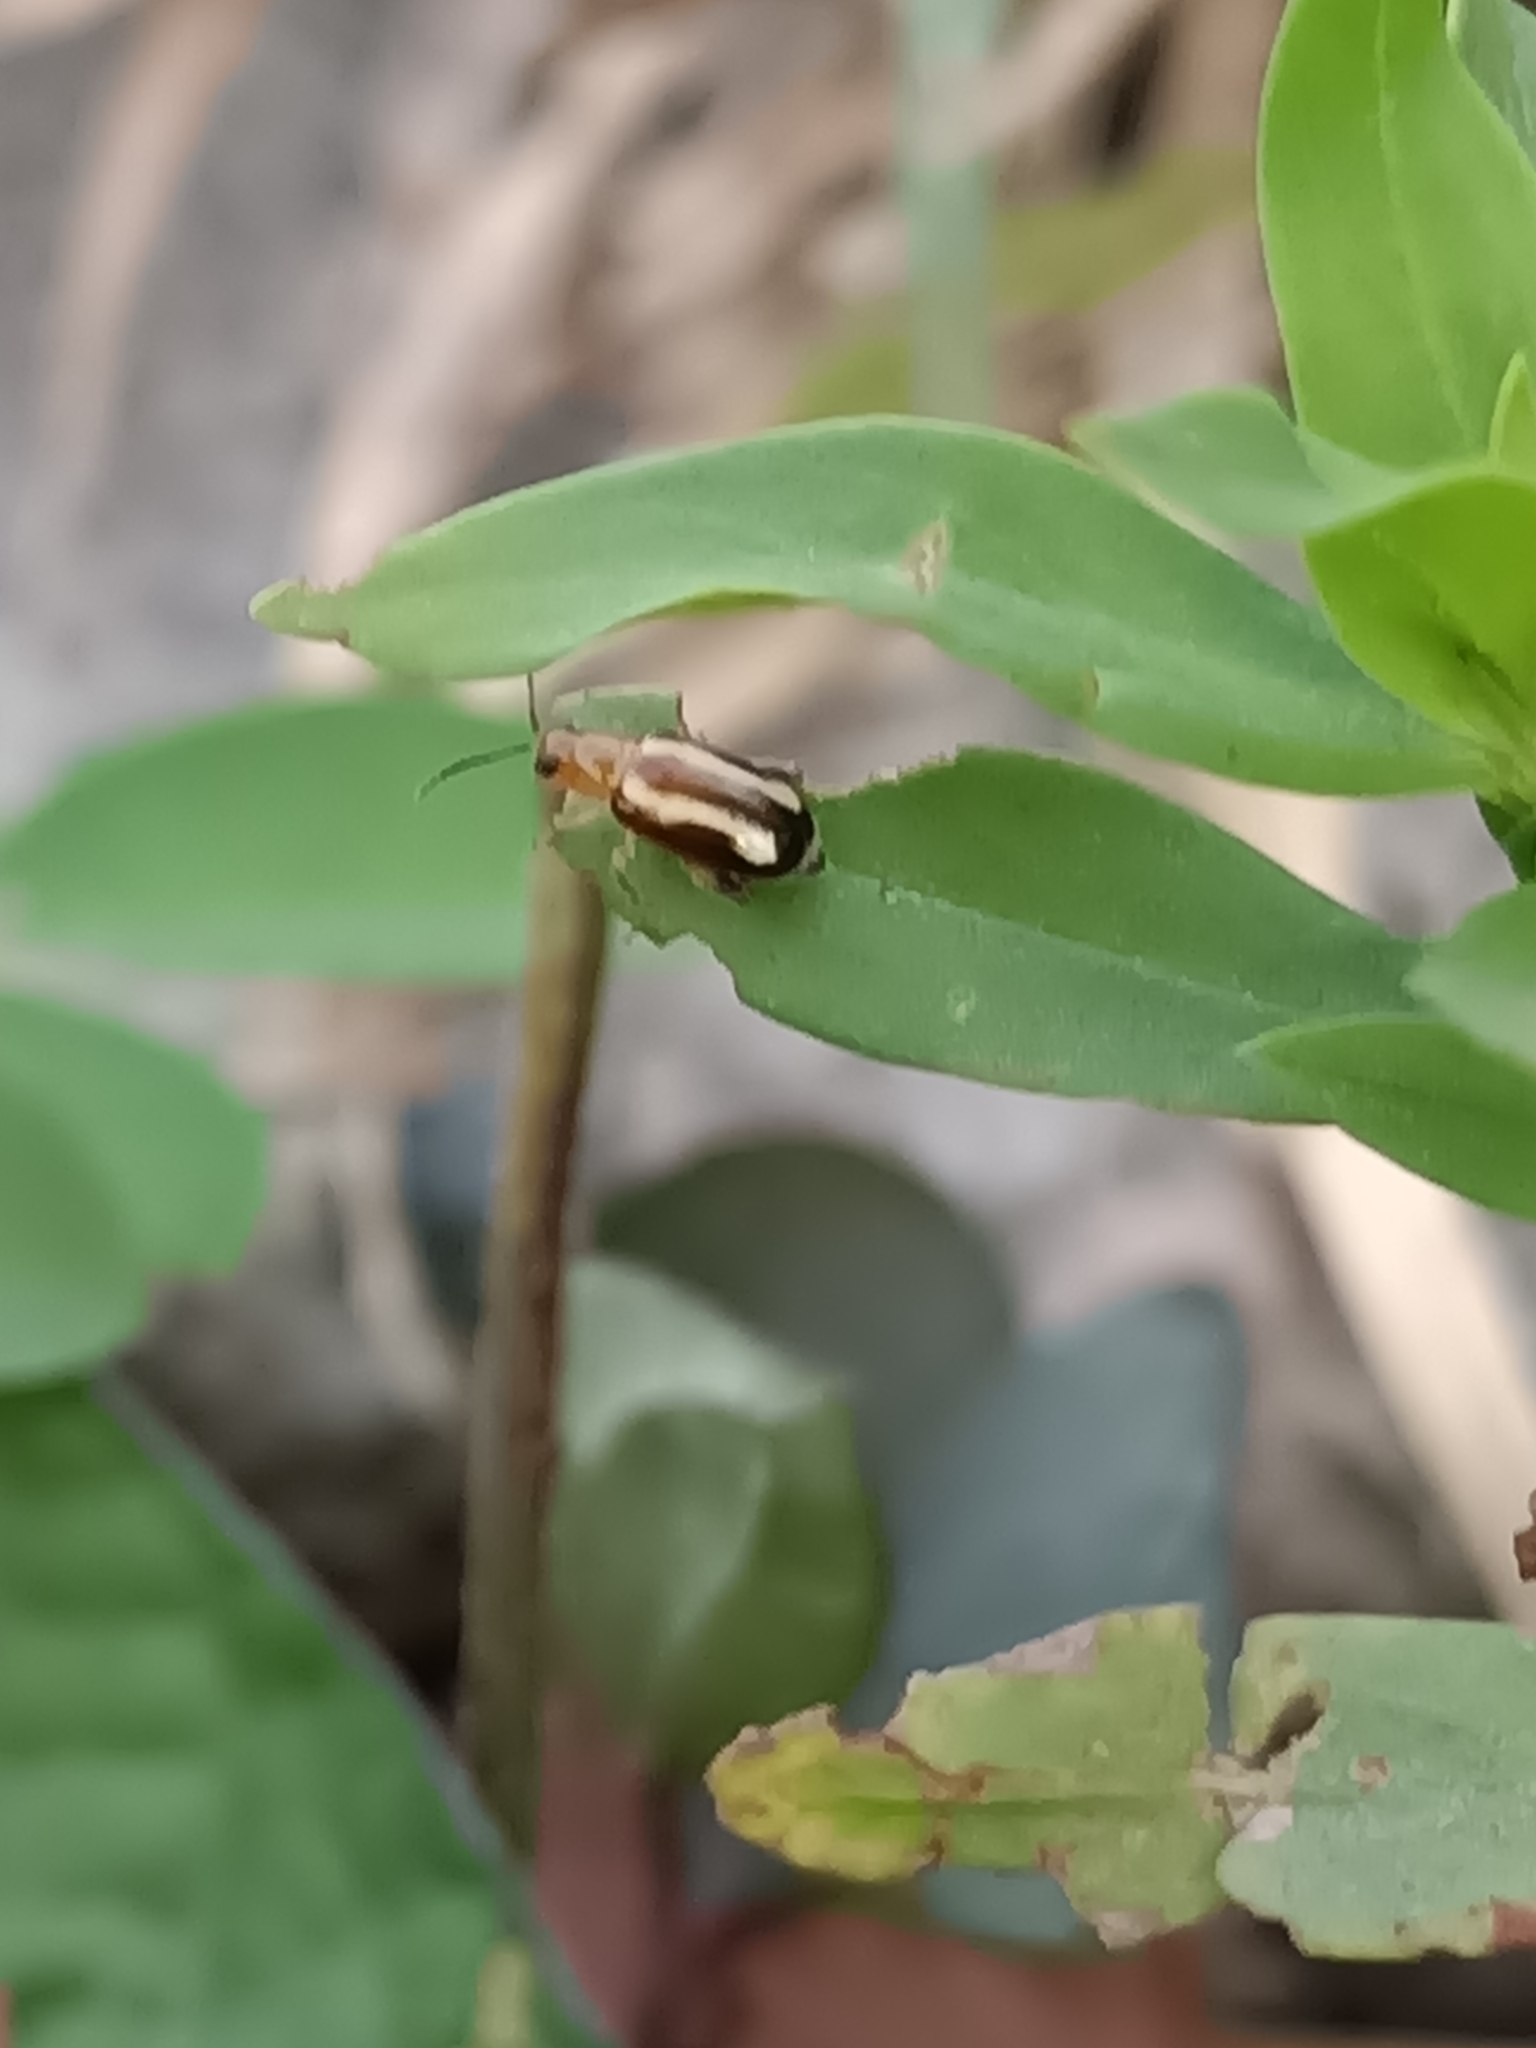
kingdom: Animalia
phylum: Arthropoda
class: Insecta
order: Coleoptera
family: Chrysomelidae
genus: Systena
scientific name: Systena s-littera
